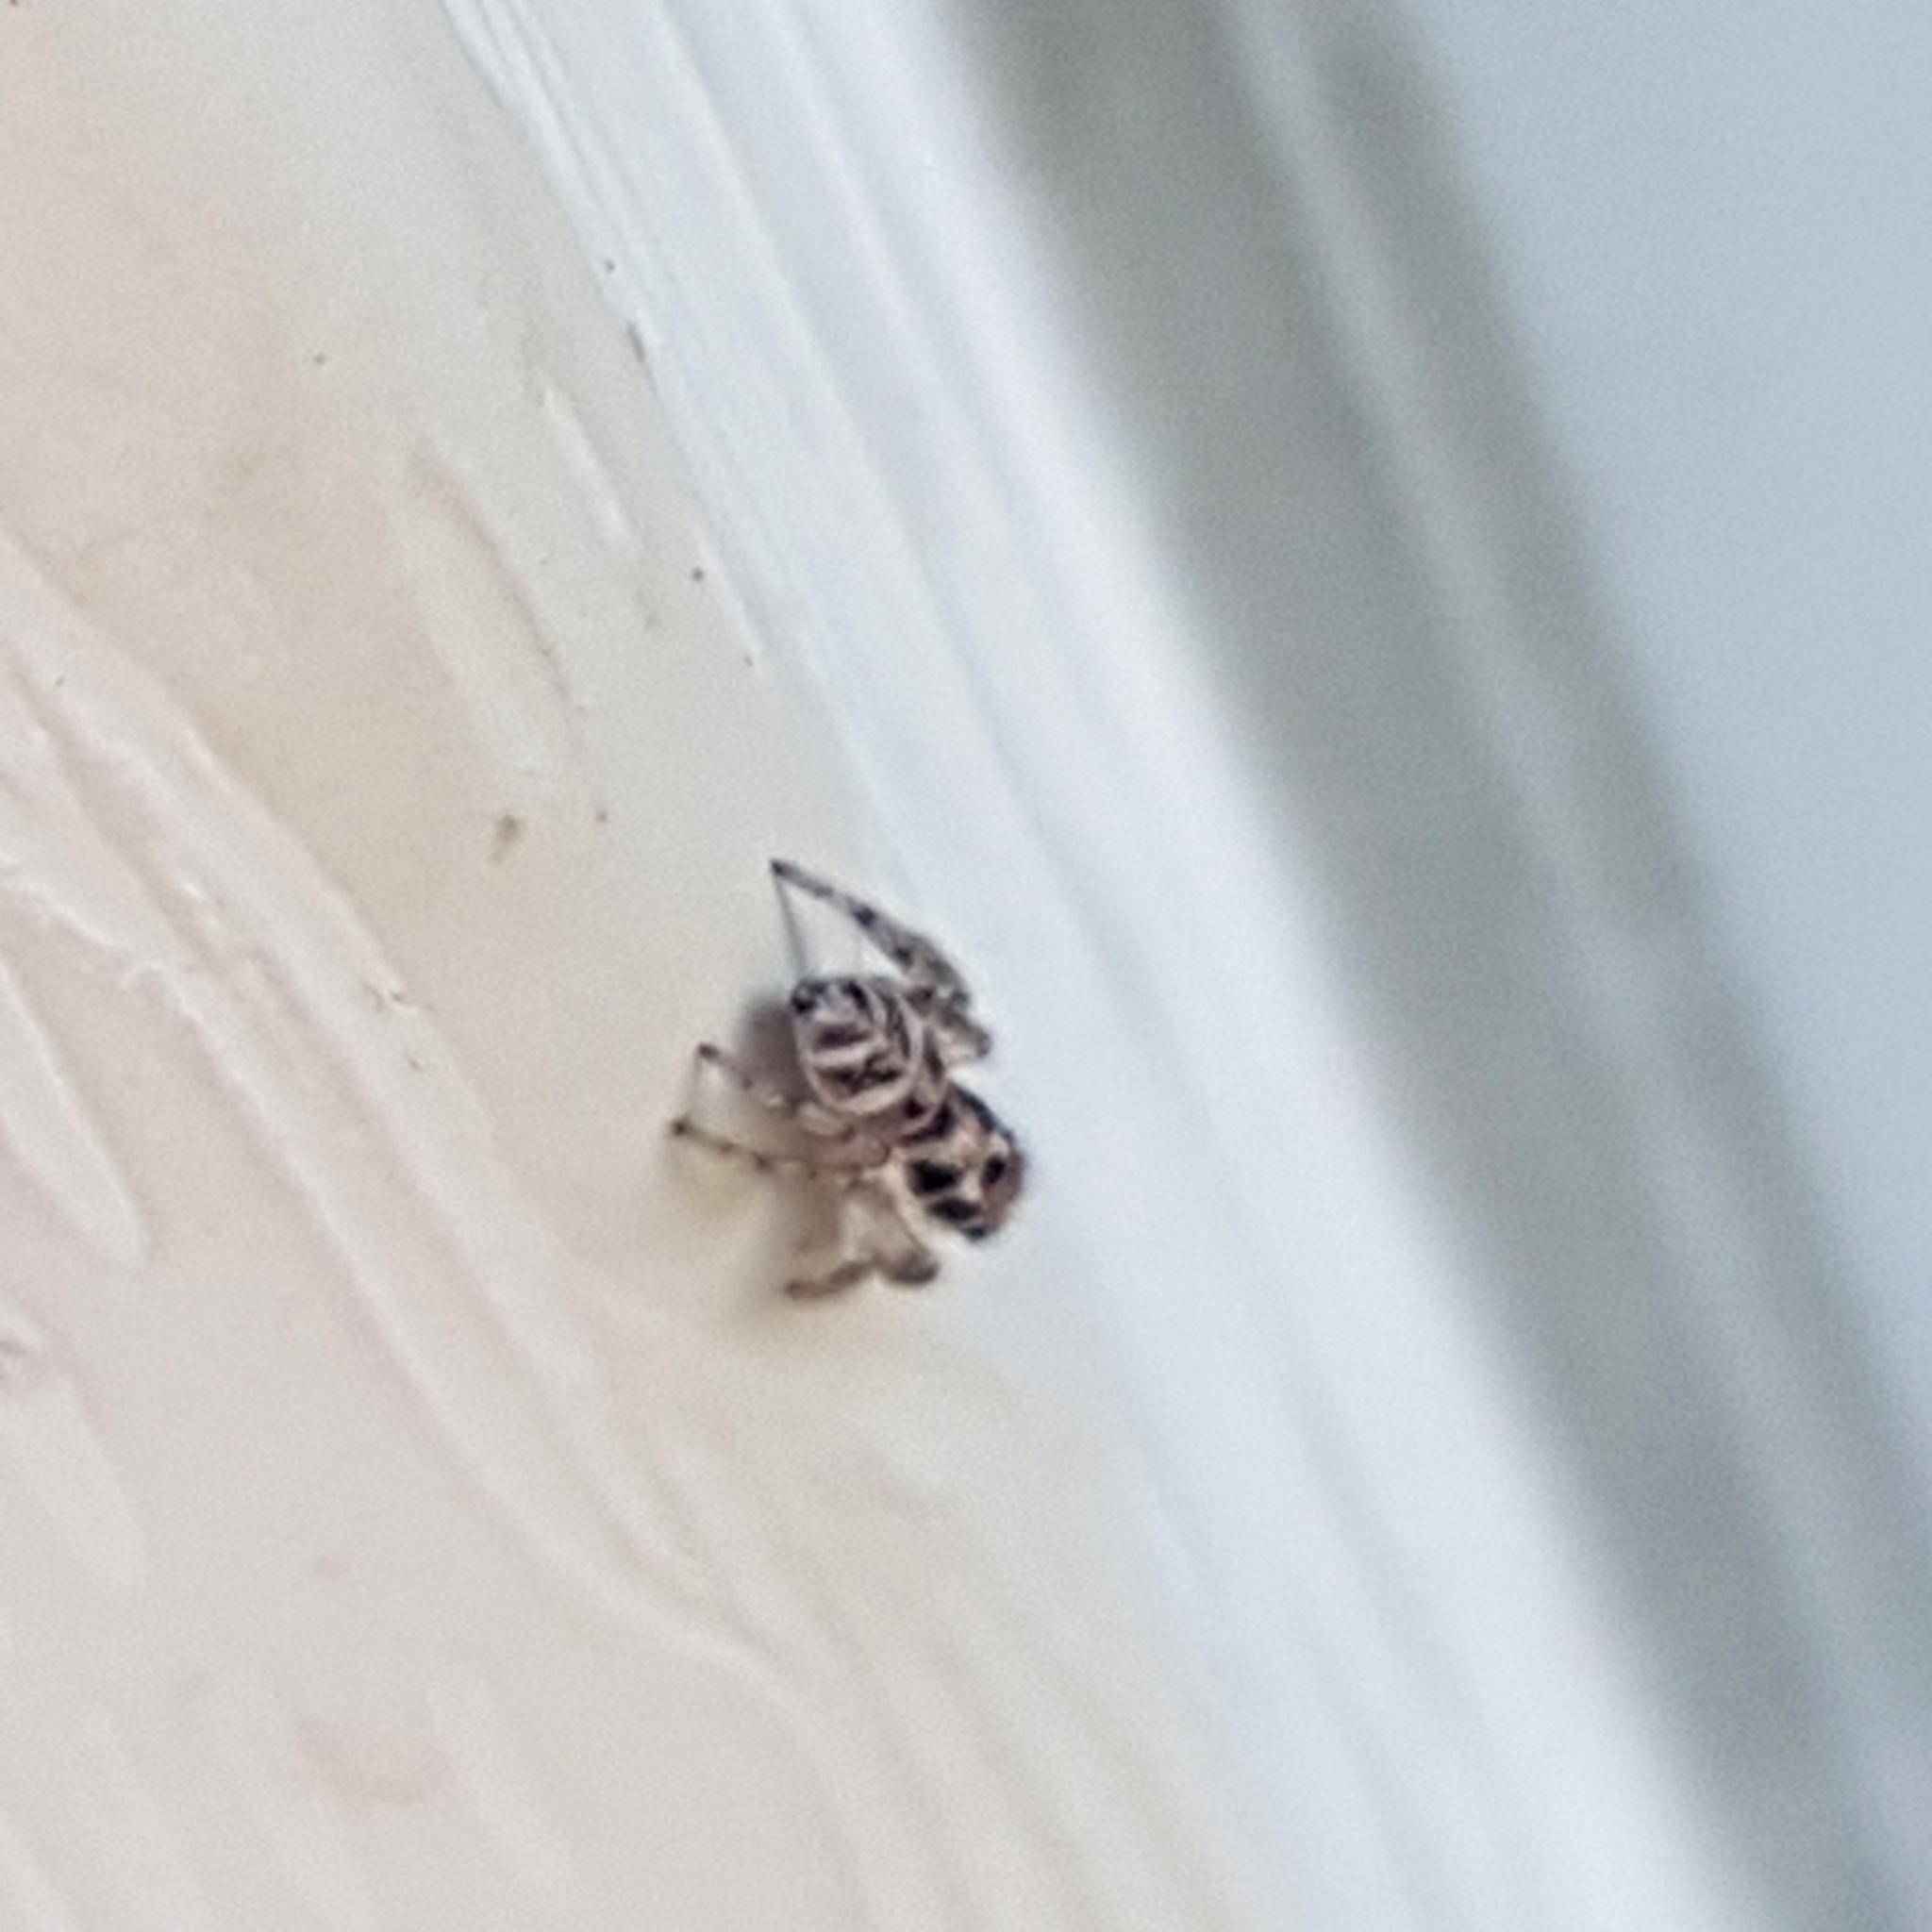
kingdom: Animalia
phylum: Arthropoda
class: Arachnida
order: Araneae
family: Salticidae
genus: Salticus
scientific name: Salticus scenicus
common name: Zebra jumper
